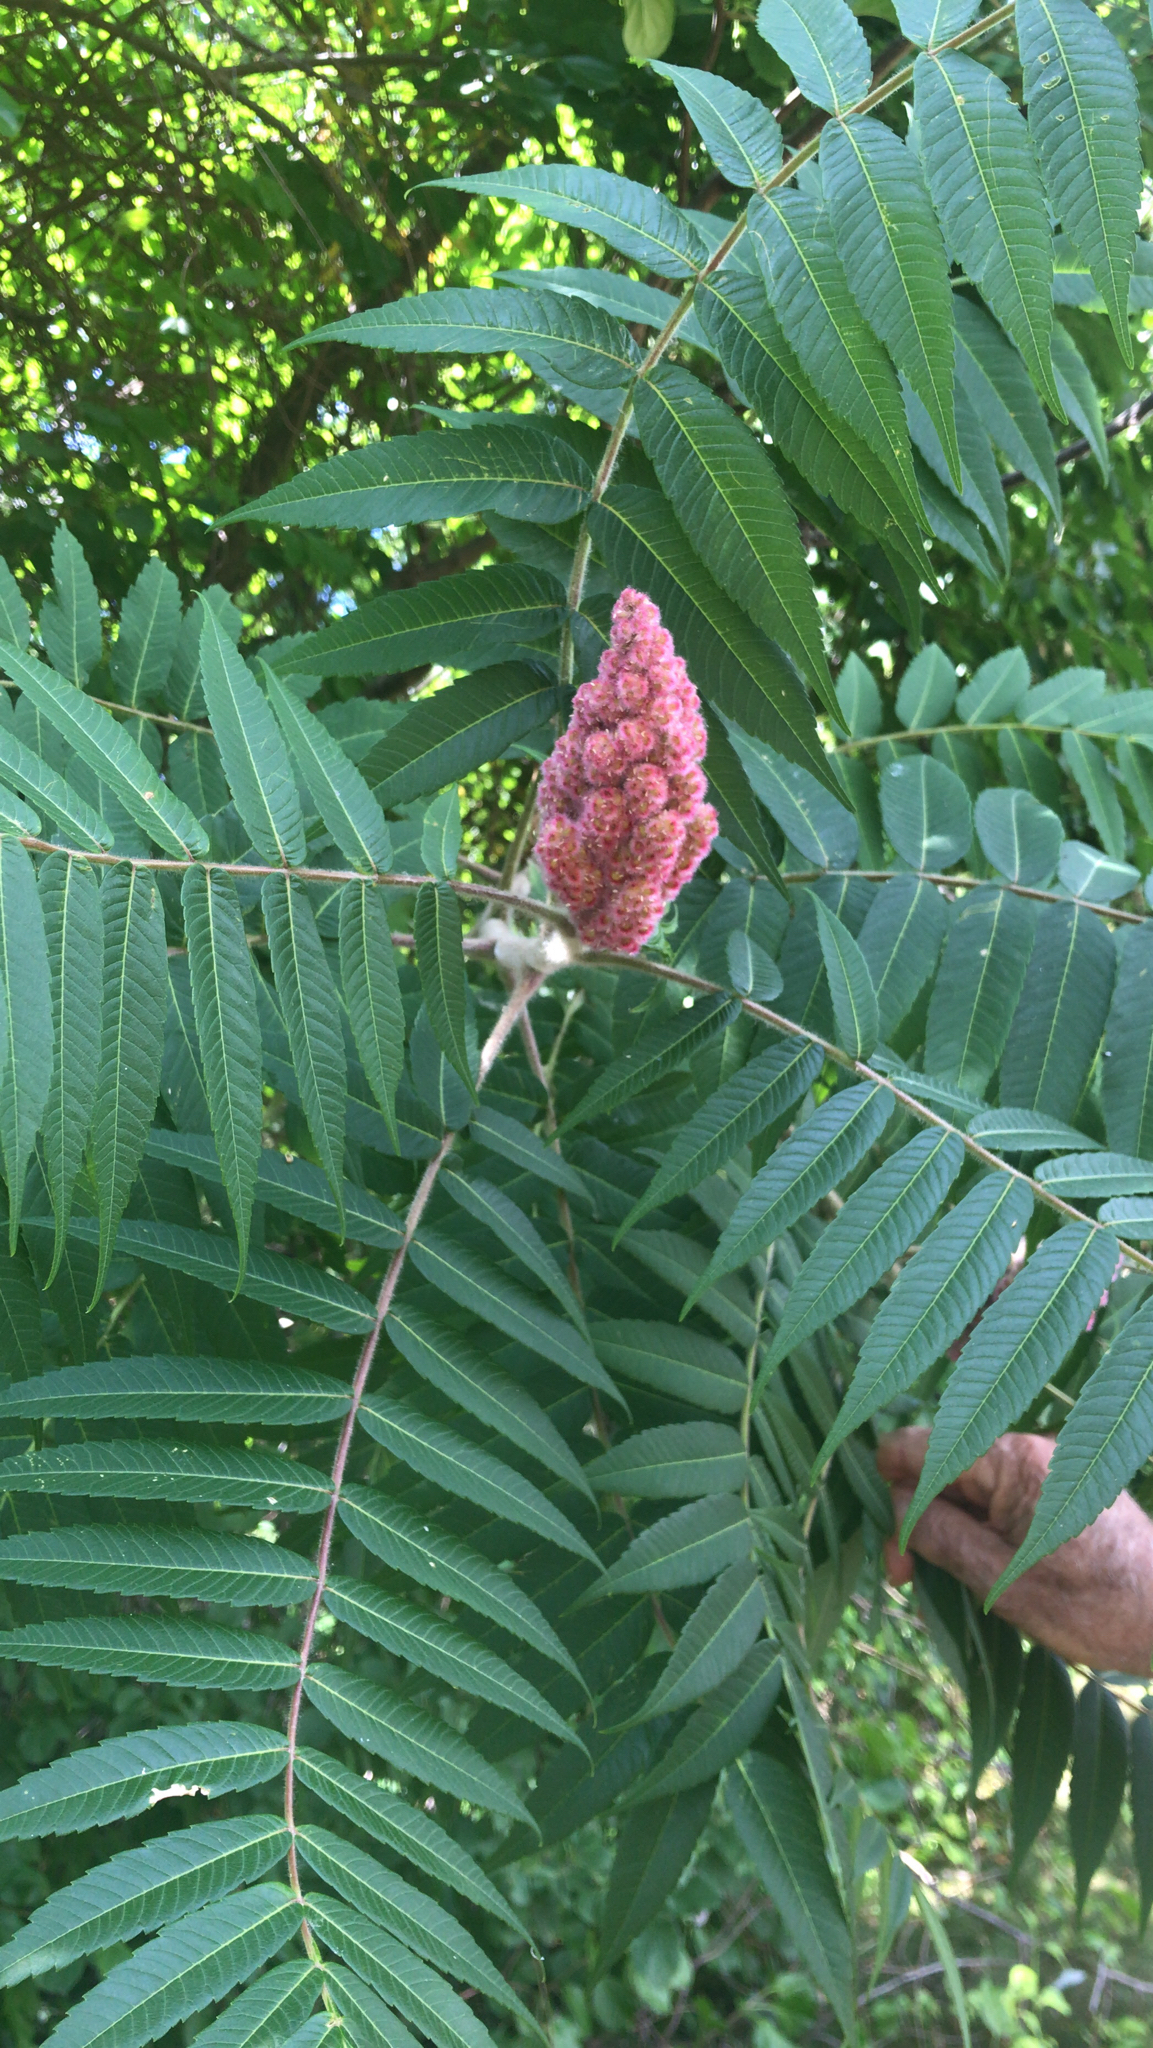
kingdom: Plantae
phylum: Tracheophyta
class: Magnoliopsida
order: Sapindales
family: Anacardiaceae
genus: Rhus
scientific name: Rhus typhina
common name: Staghorn sumac
